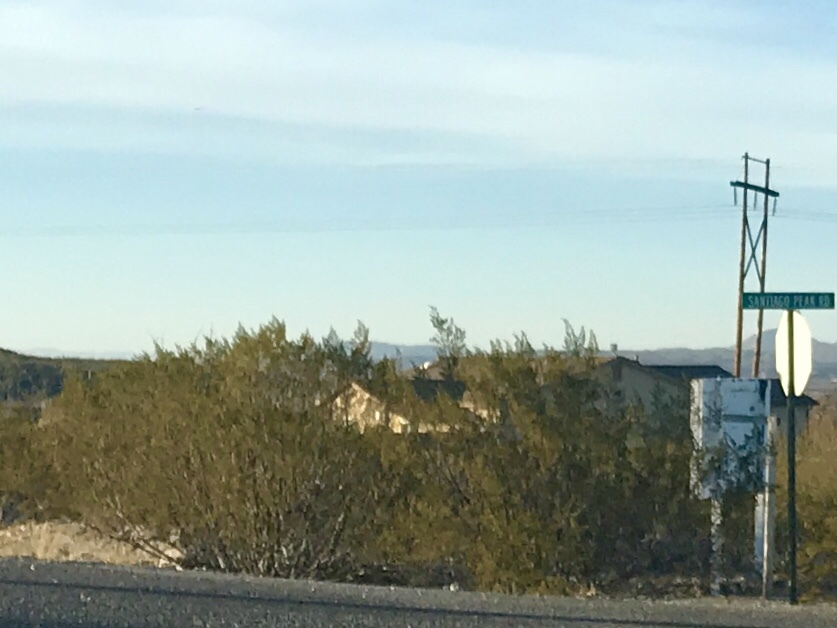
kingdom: Plantae
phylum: Tracheophyta
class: Magnoliopsida
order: Zygophyllales
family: Zygophyllaceae
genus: Larrea
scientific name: Larrea tridentata
